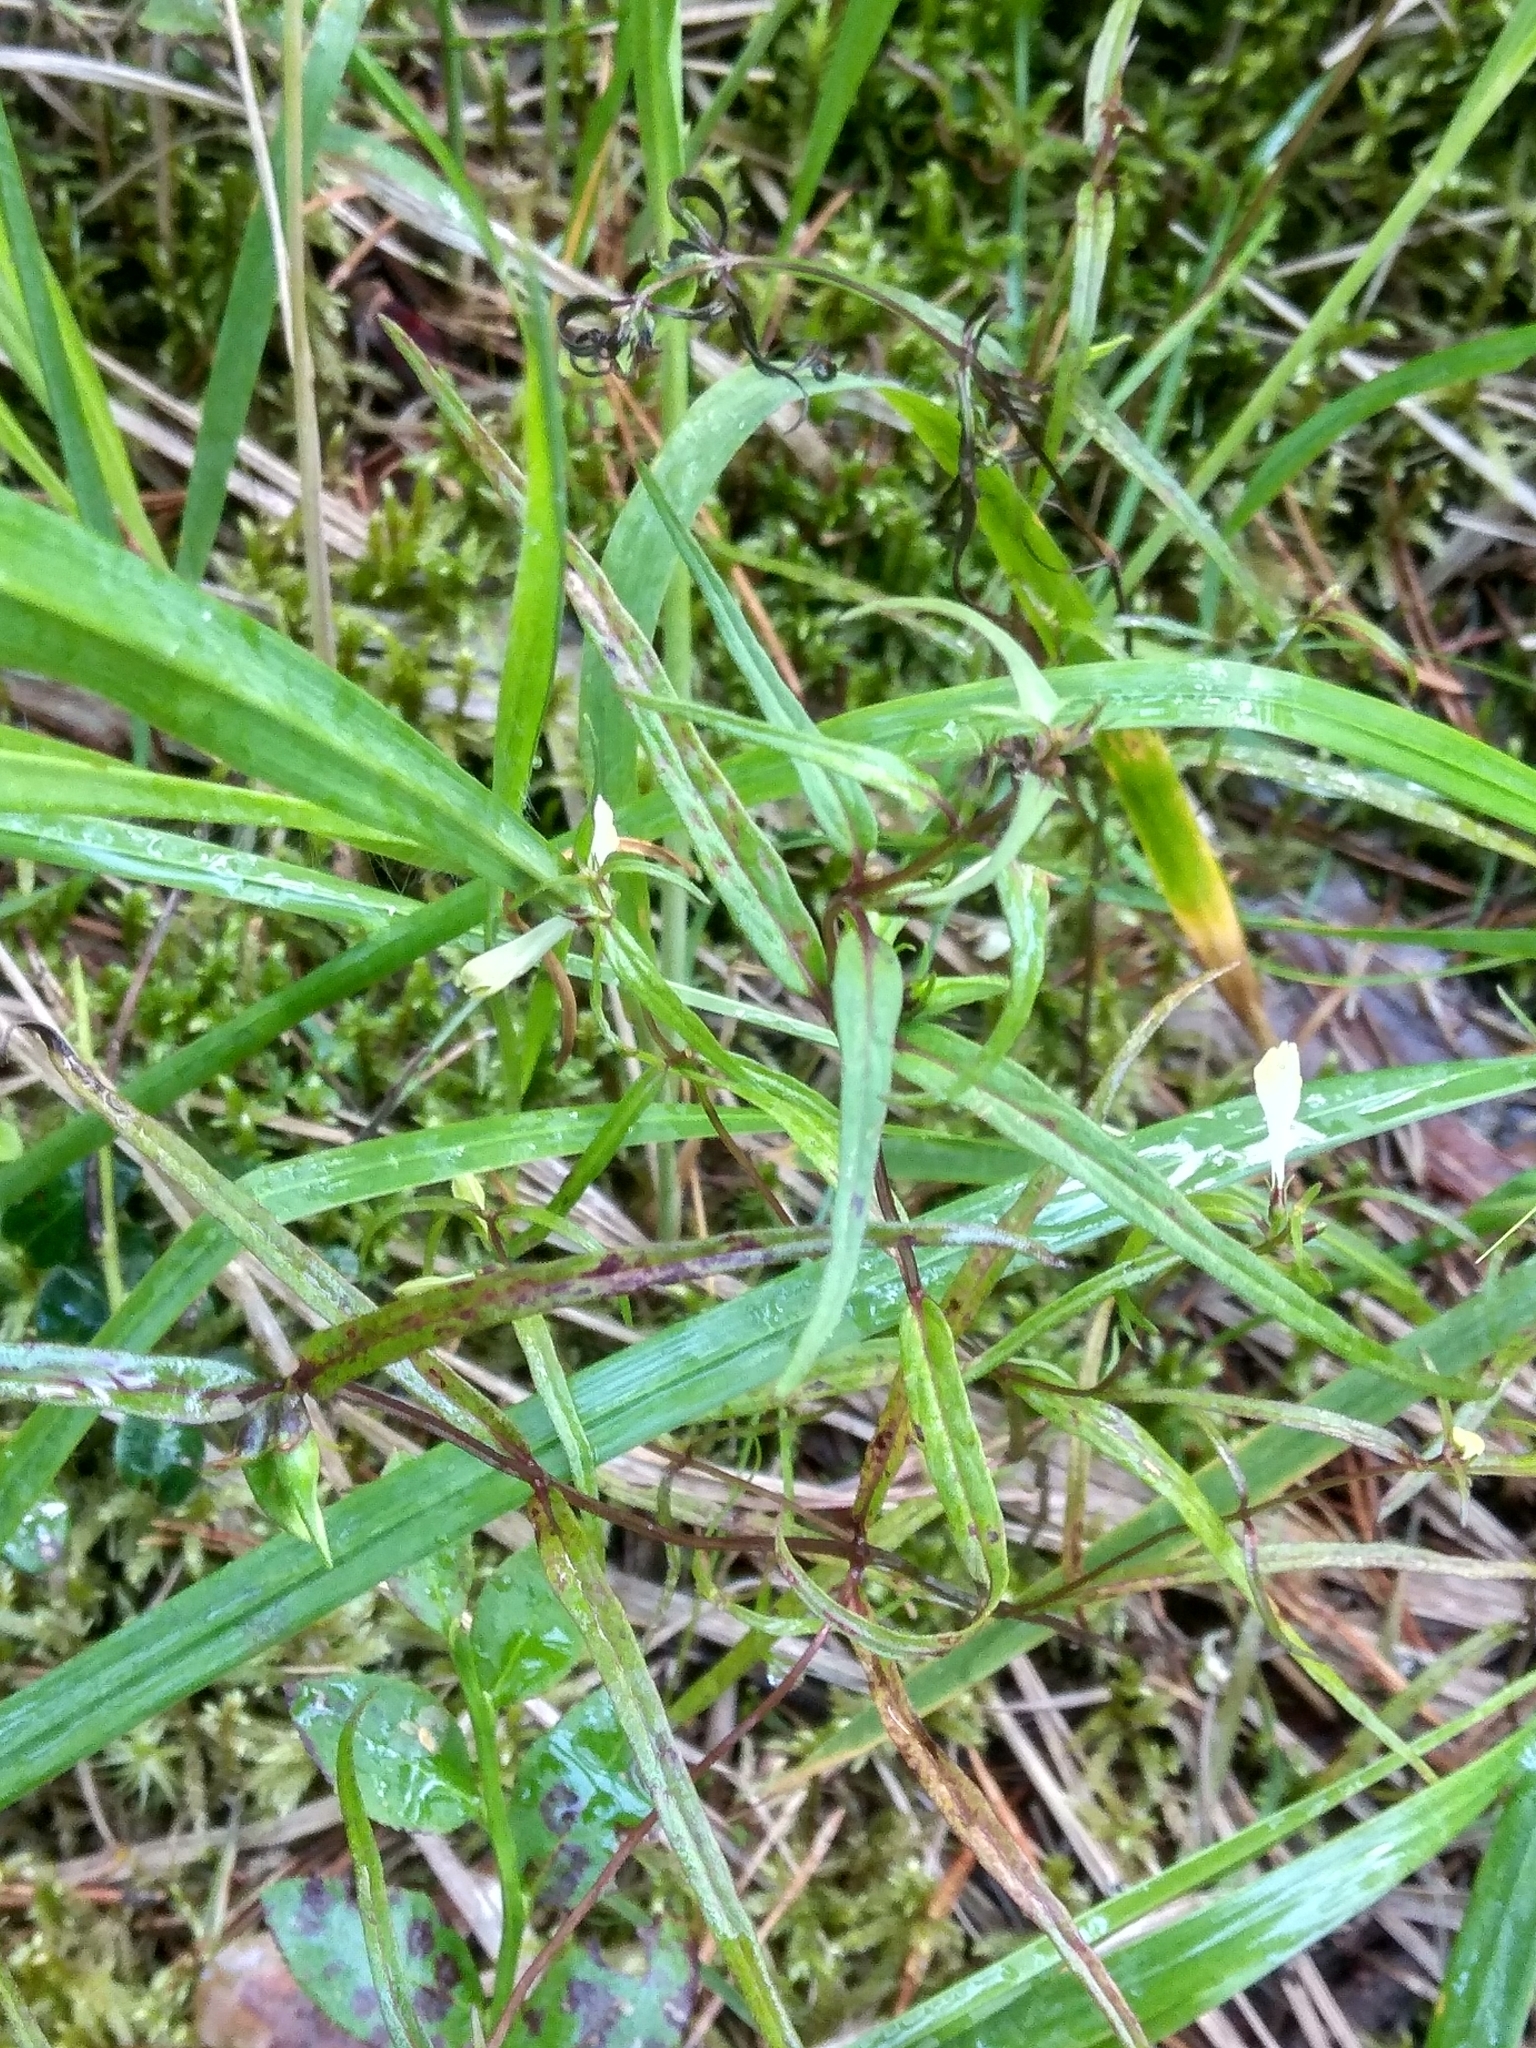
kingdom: Plantae
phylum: Tracheophyta
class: Magnoliopsida
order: Lamiales
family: Orobanchaceae
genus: Melampyrum
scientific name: Melampyrum pratense
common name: Common cow-wheat
